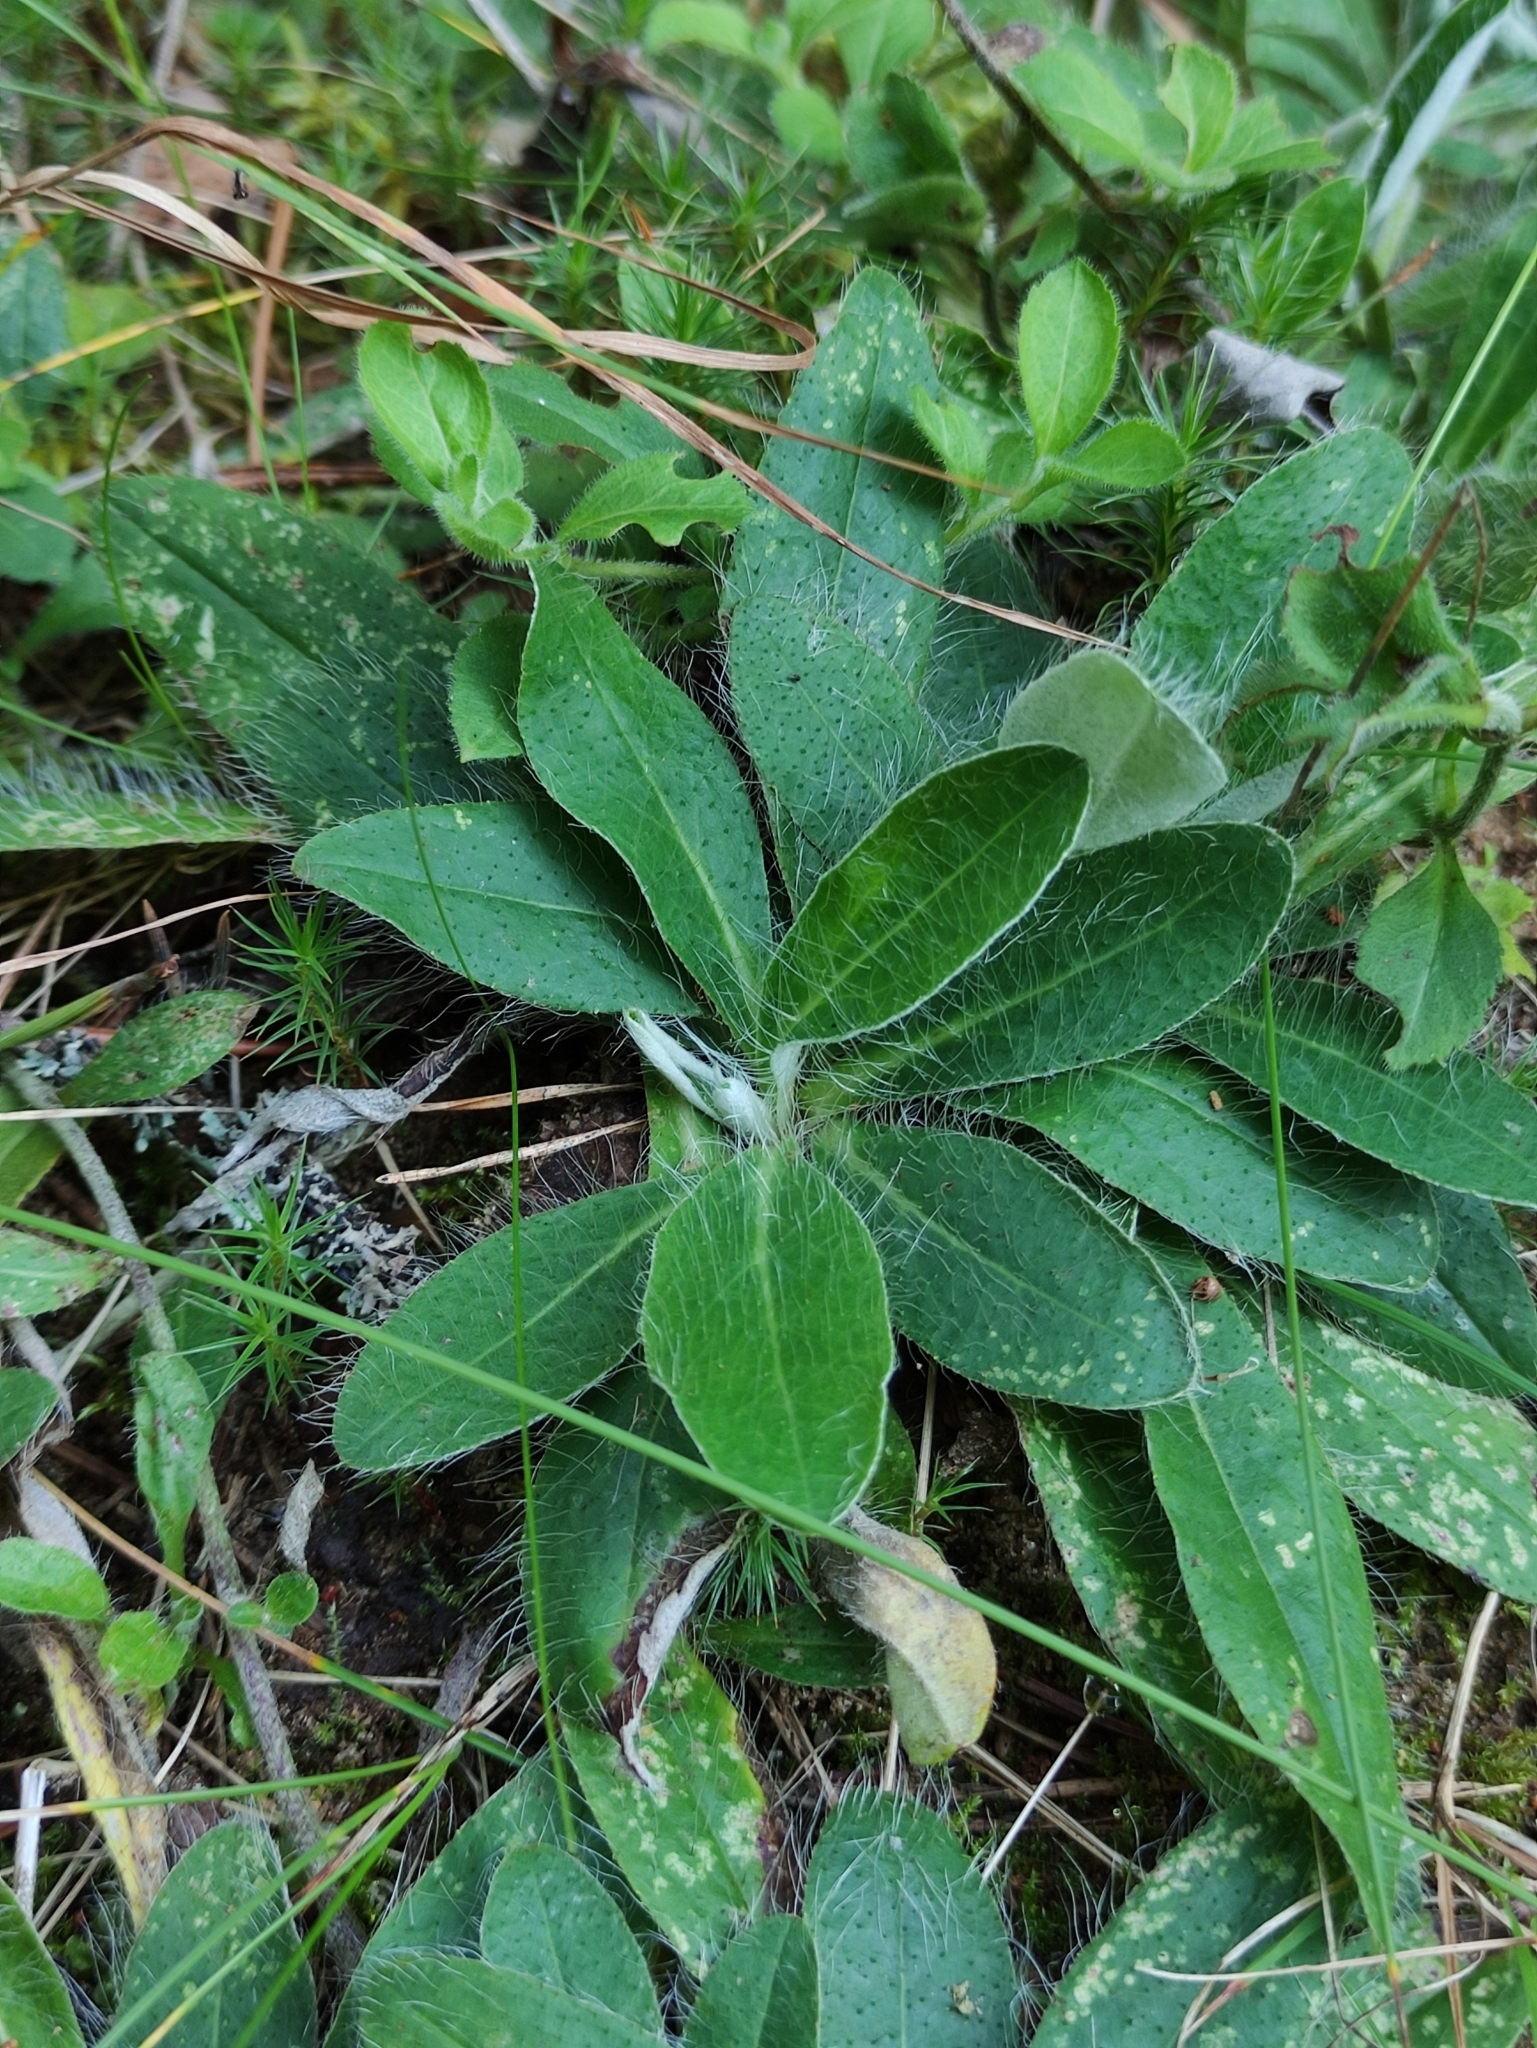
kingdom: Plantae
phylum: Tracheophyta
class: Magnoliopsida
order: Asterales
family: Asteraceae
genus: Pilosella
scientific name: Pilosella officinarum
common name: Mouse-ear hawkweed
